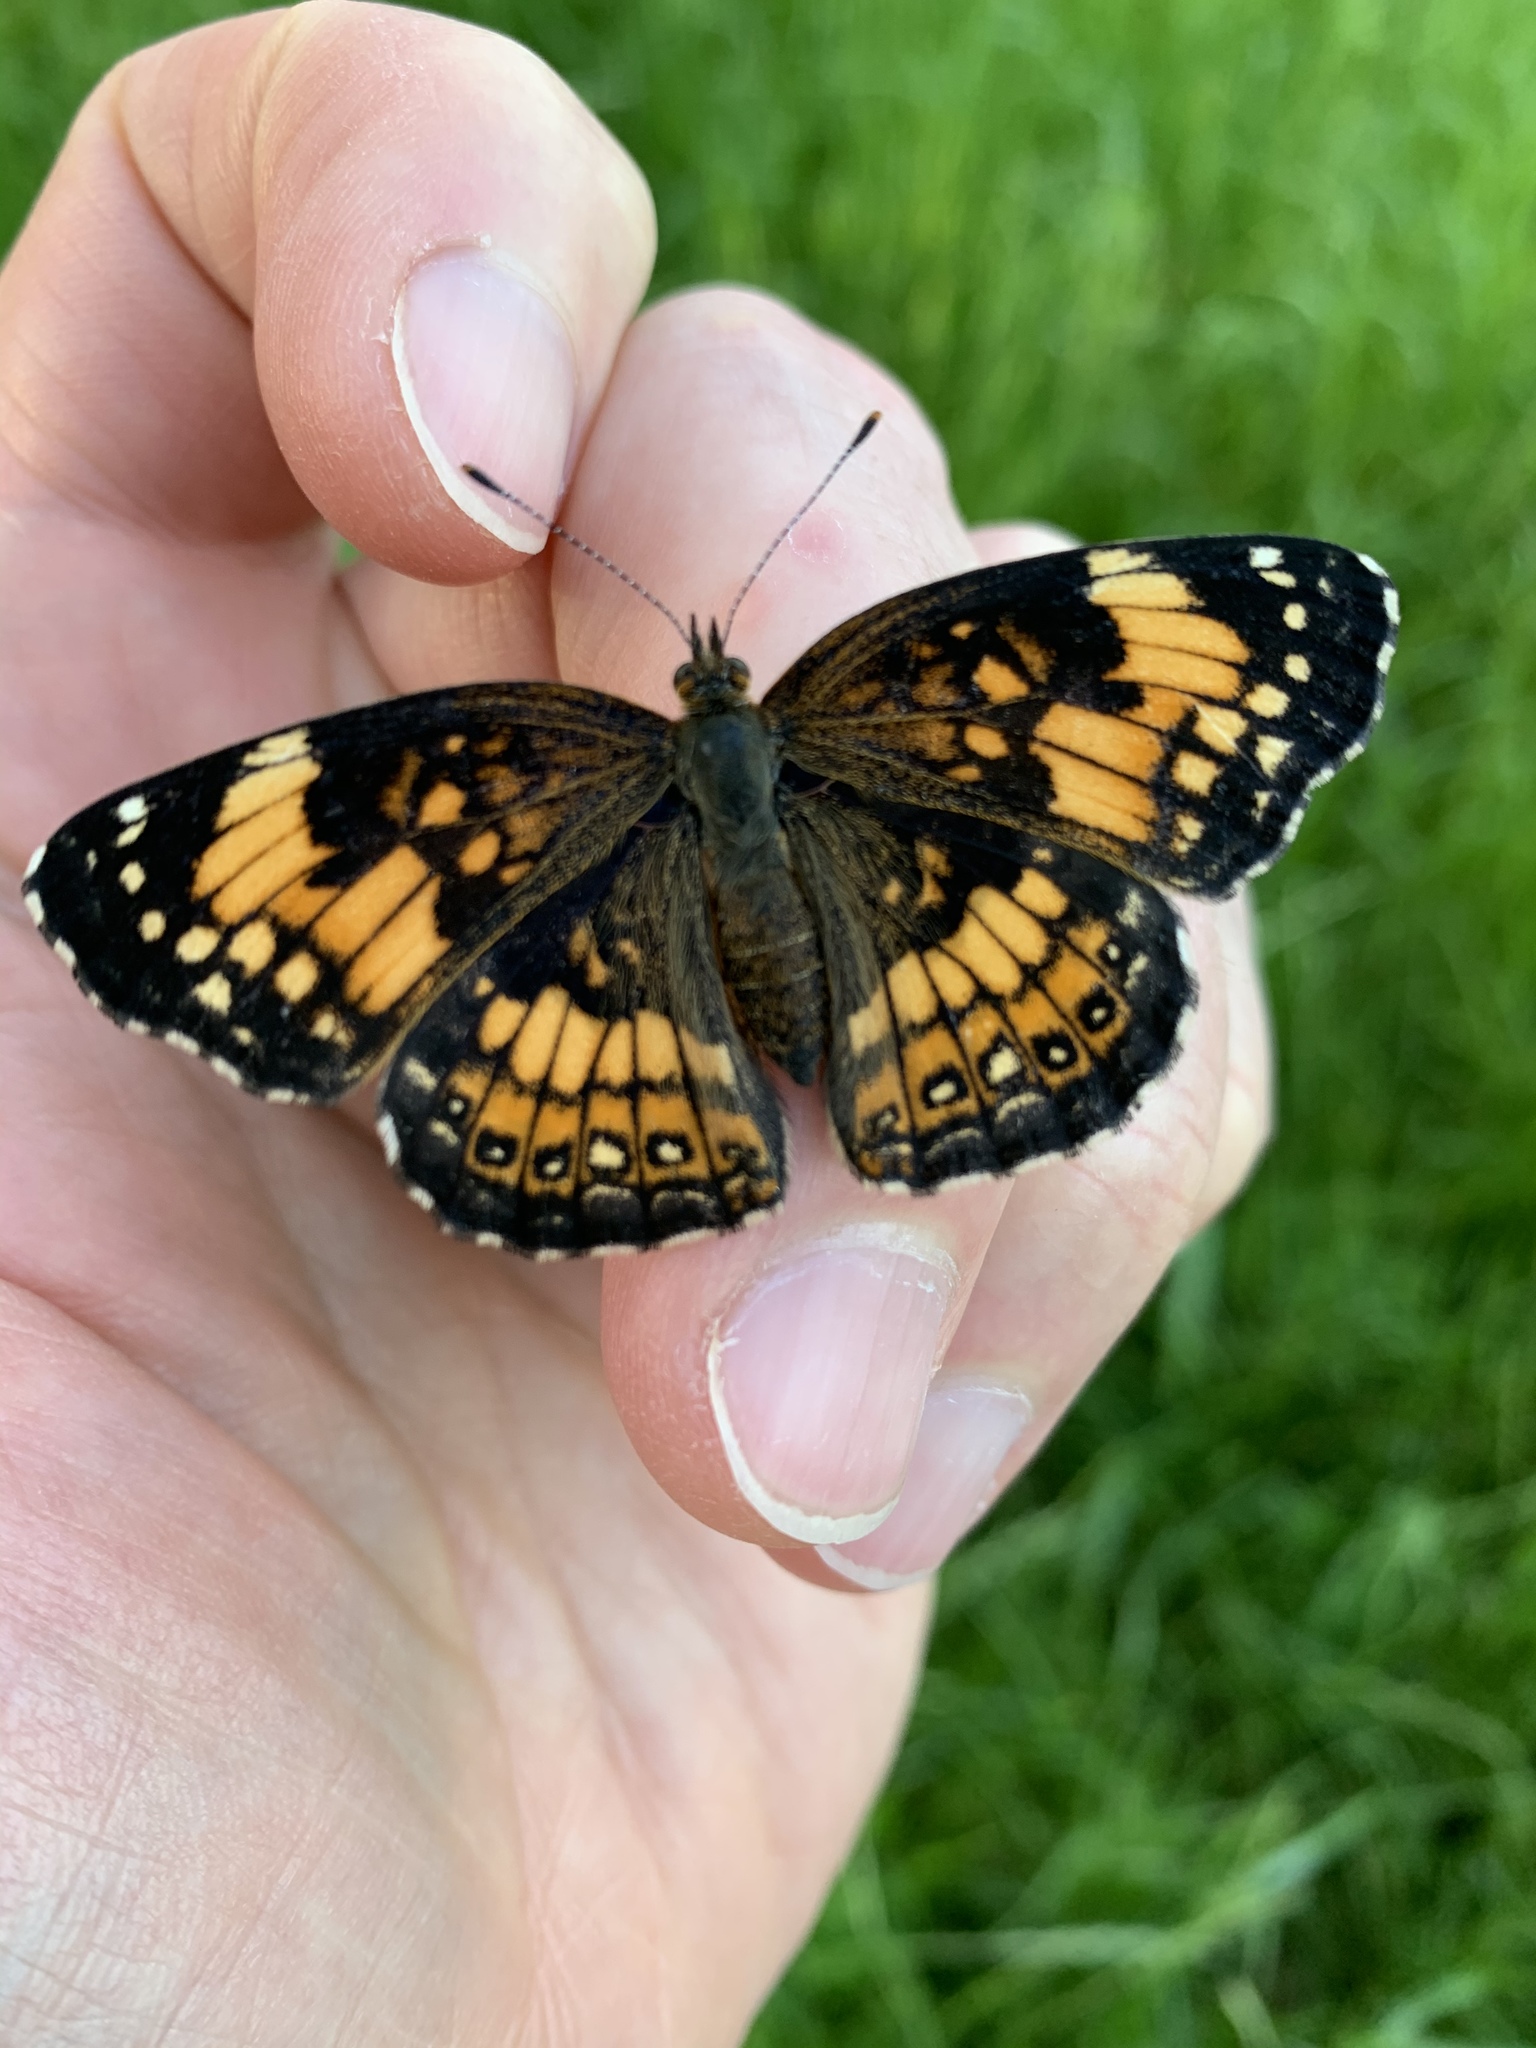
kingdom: Animalia
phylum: Arthropoda
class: Insecta
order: Lepidoptera
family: Nymphalidae
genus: Chlosyne
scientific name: Chlosyne nycteis
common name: Silvery checkerspot
